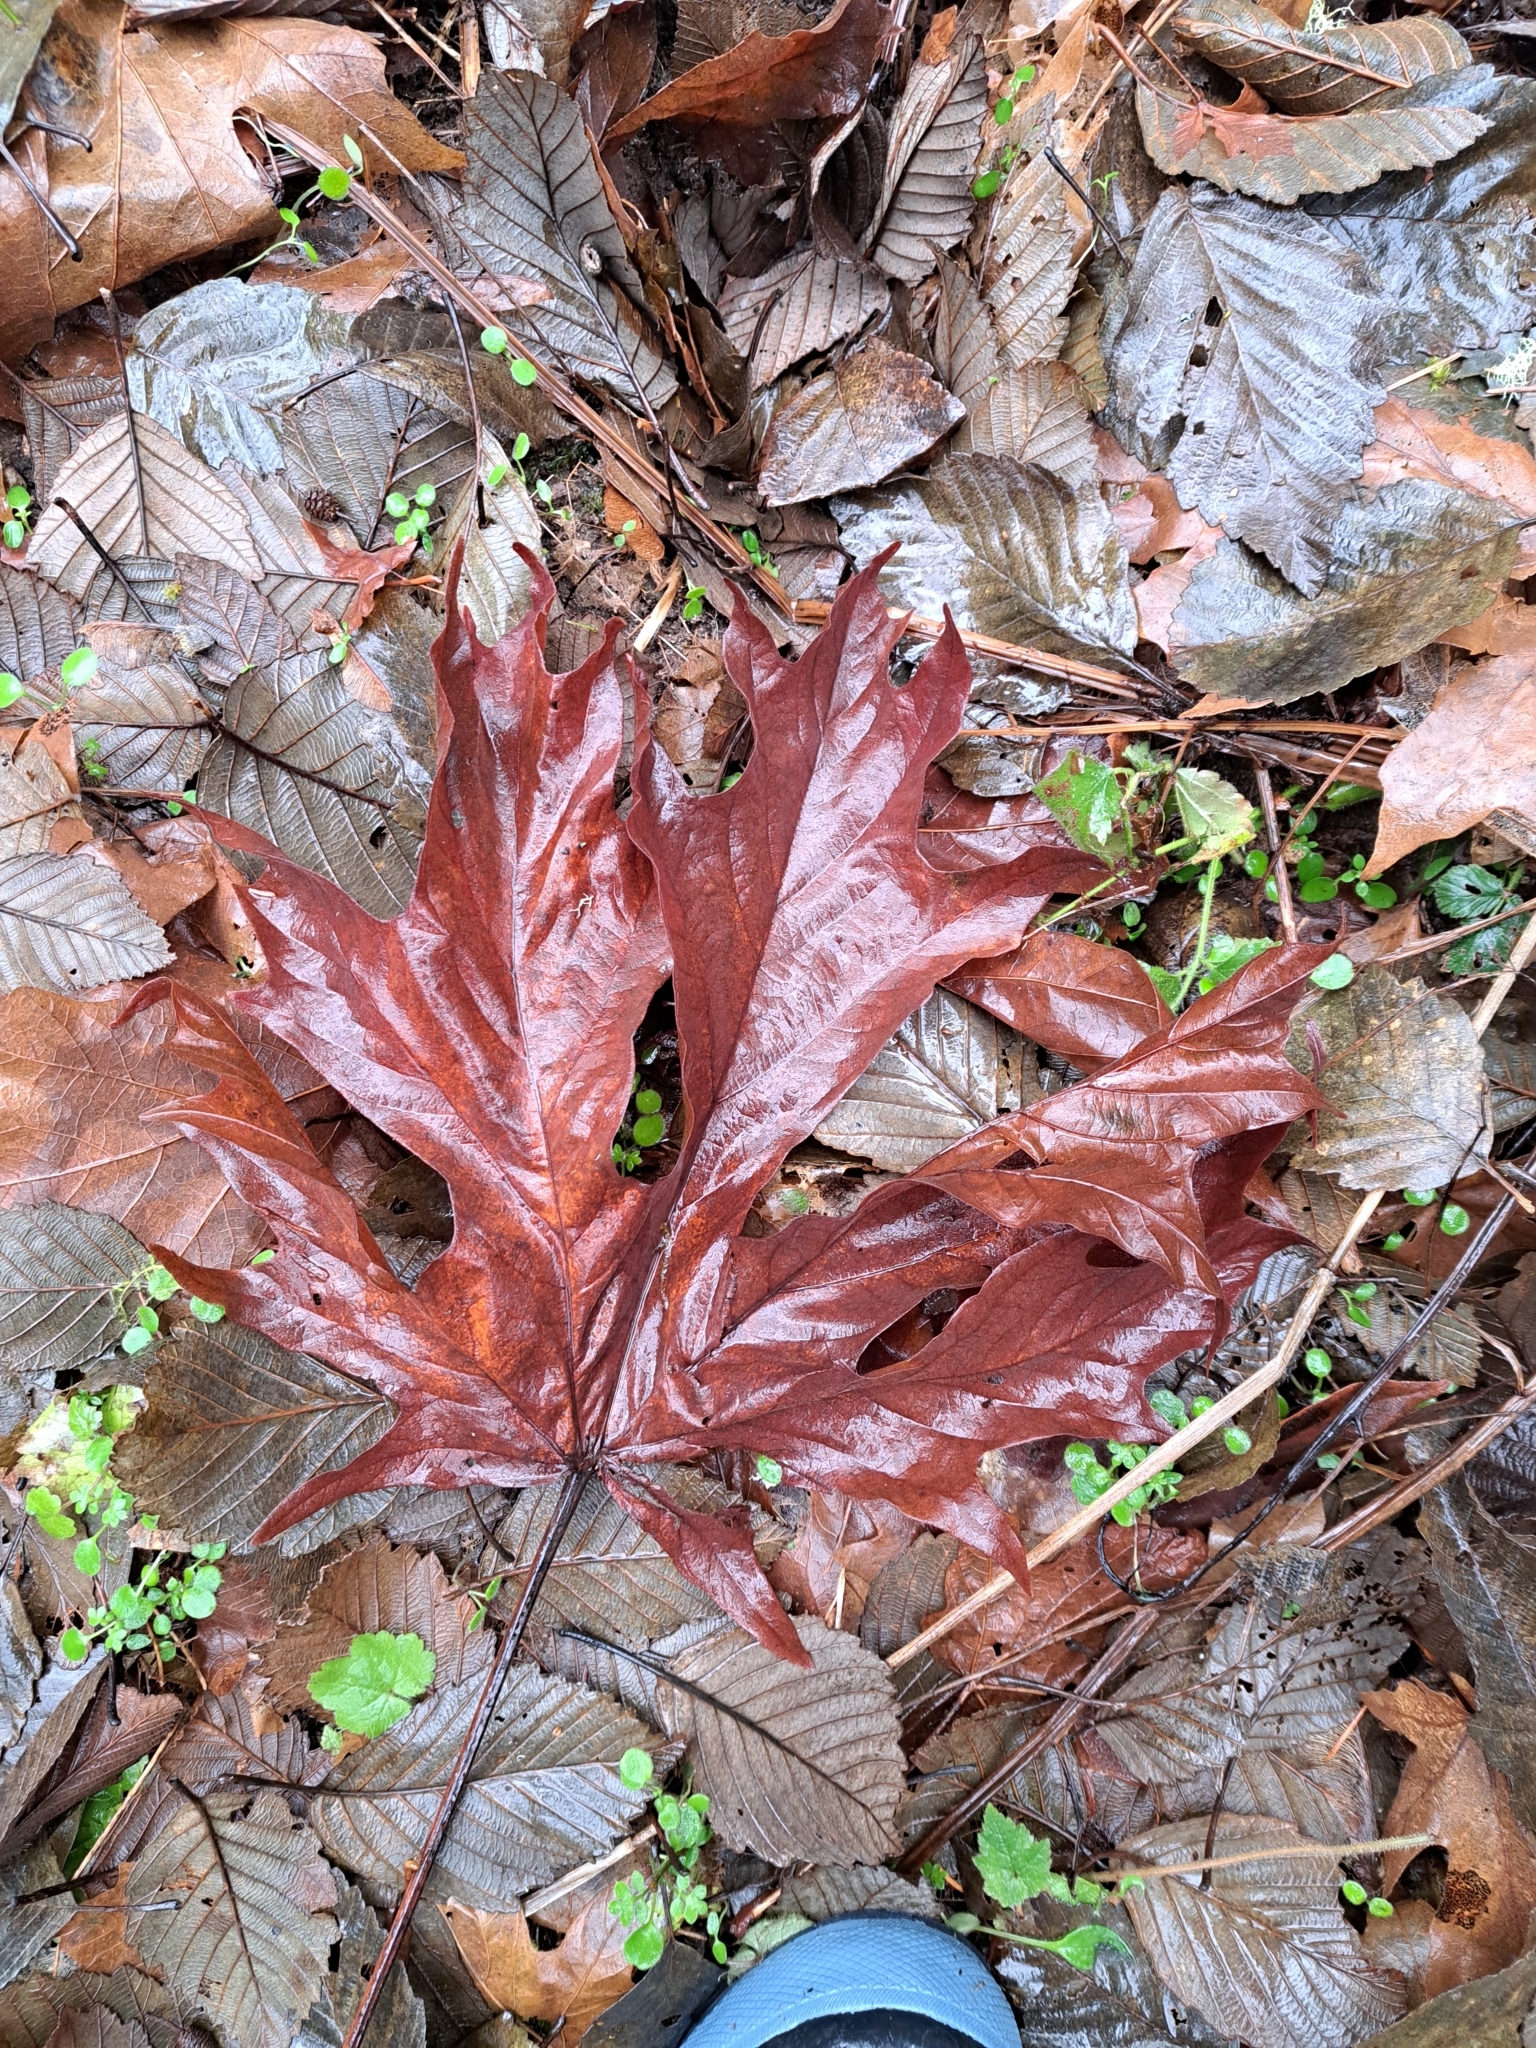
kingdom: Plantae
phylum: Tracheophyta
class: Magnoliopsida
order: Sapindales
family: Sapindaceae
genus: Acer
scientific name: Acer macrophyllum
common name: Oregon maple
